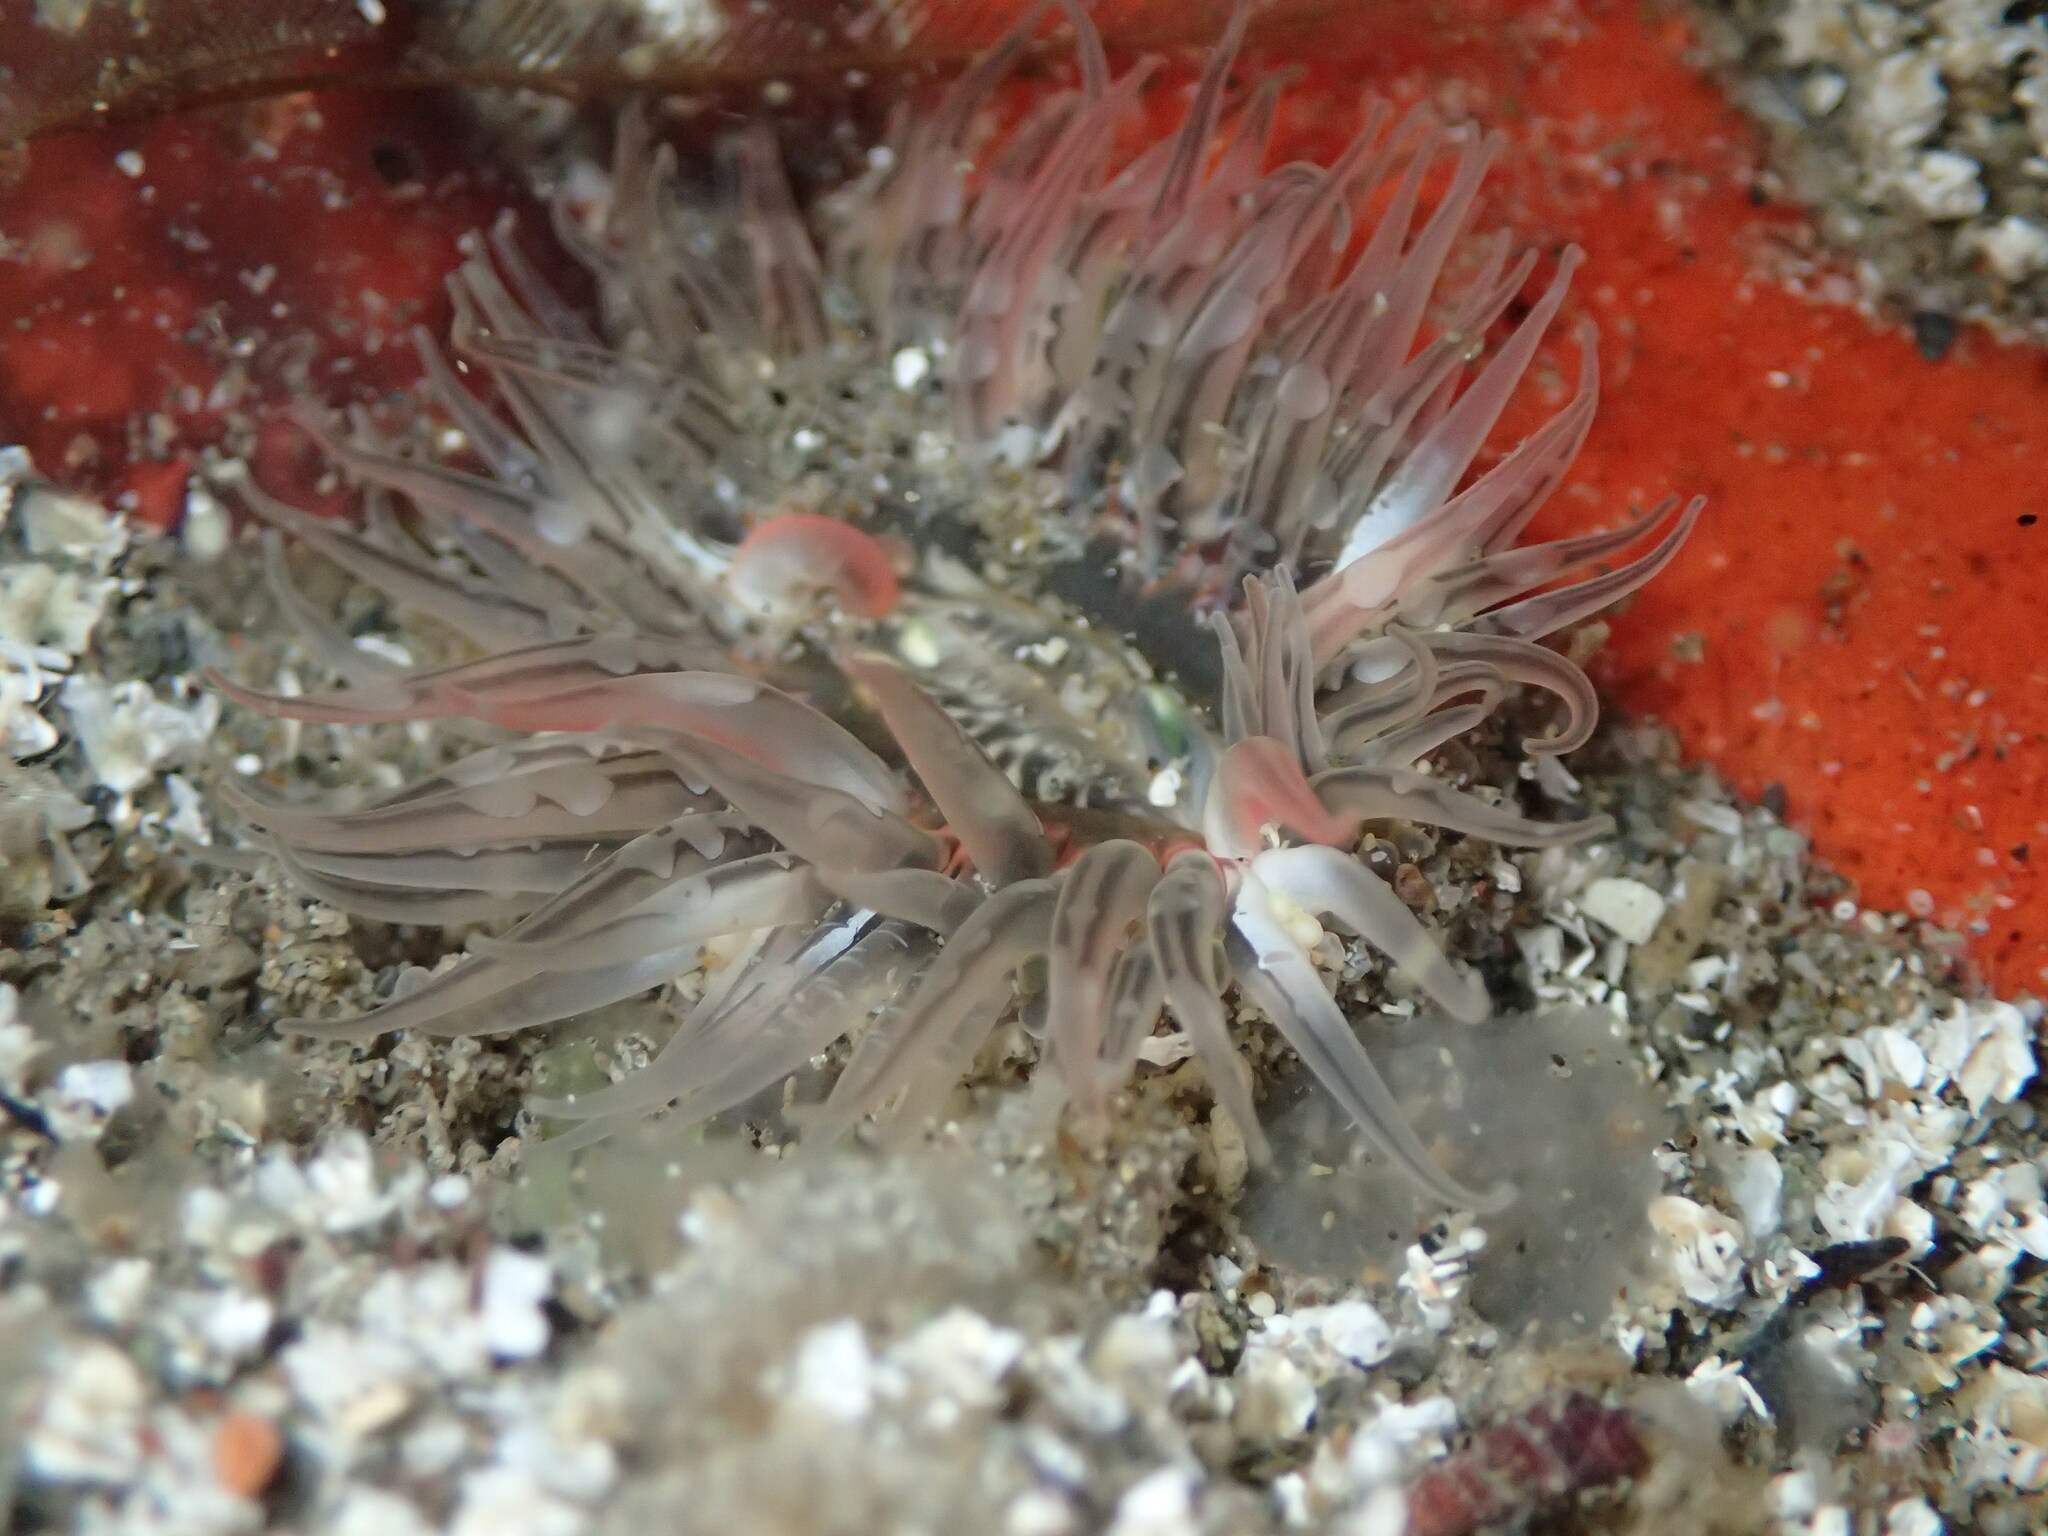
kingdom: Animalia
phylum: Cnidaria
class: Anthozoa
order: Actiniaria
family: Actiniidae
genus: Anthopleura
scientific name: Anthopleura artemisia
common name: Buried sea anemone
